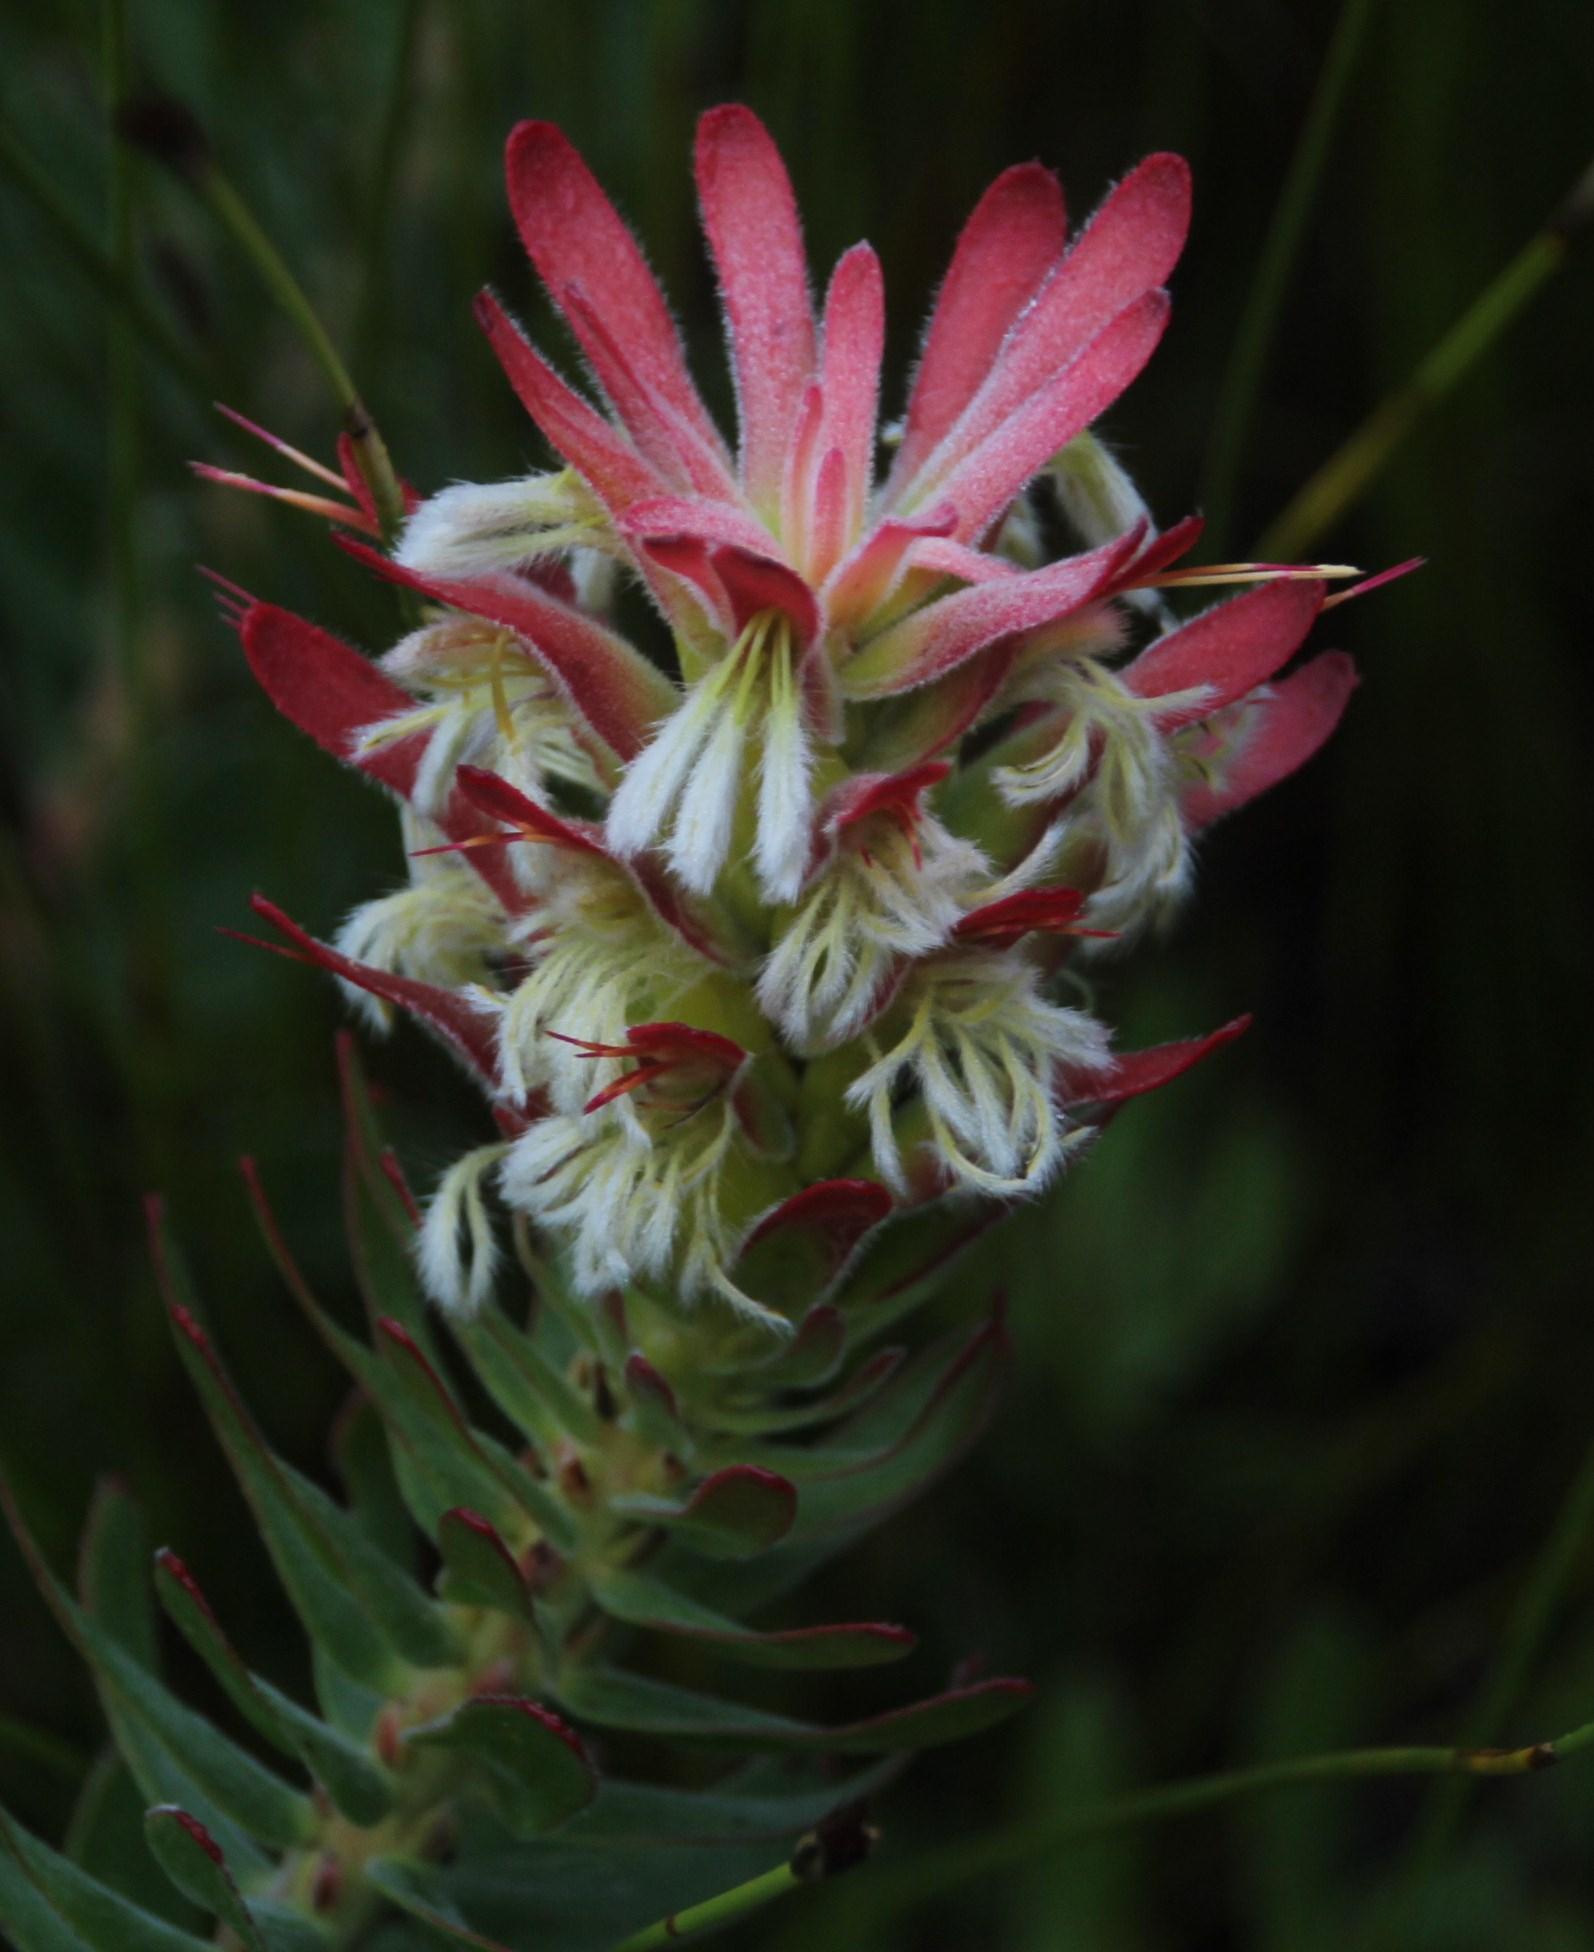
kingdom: Plantae
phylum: Tracheophyta
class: Magnoliopsida
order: Proteales
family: Proteaceae
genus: Mimetes
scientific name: Mimetes cucullatus
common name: Common pagoda
